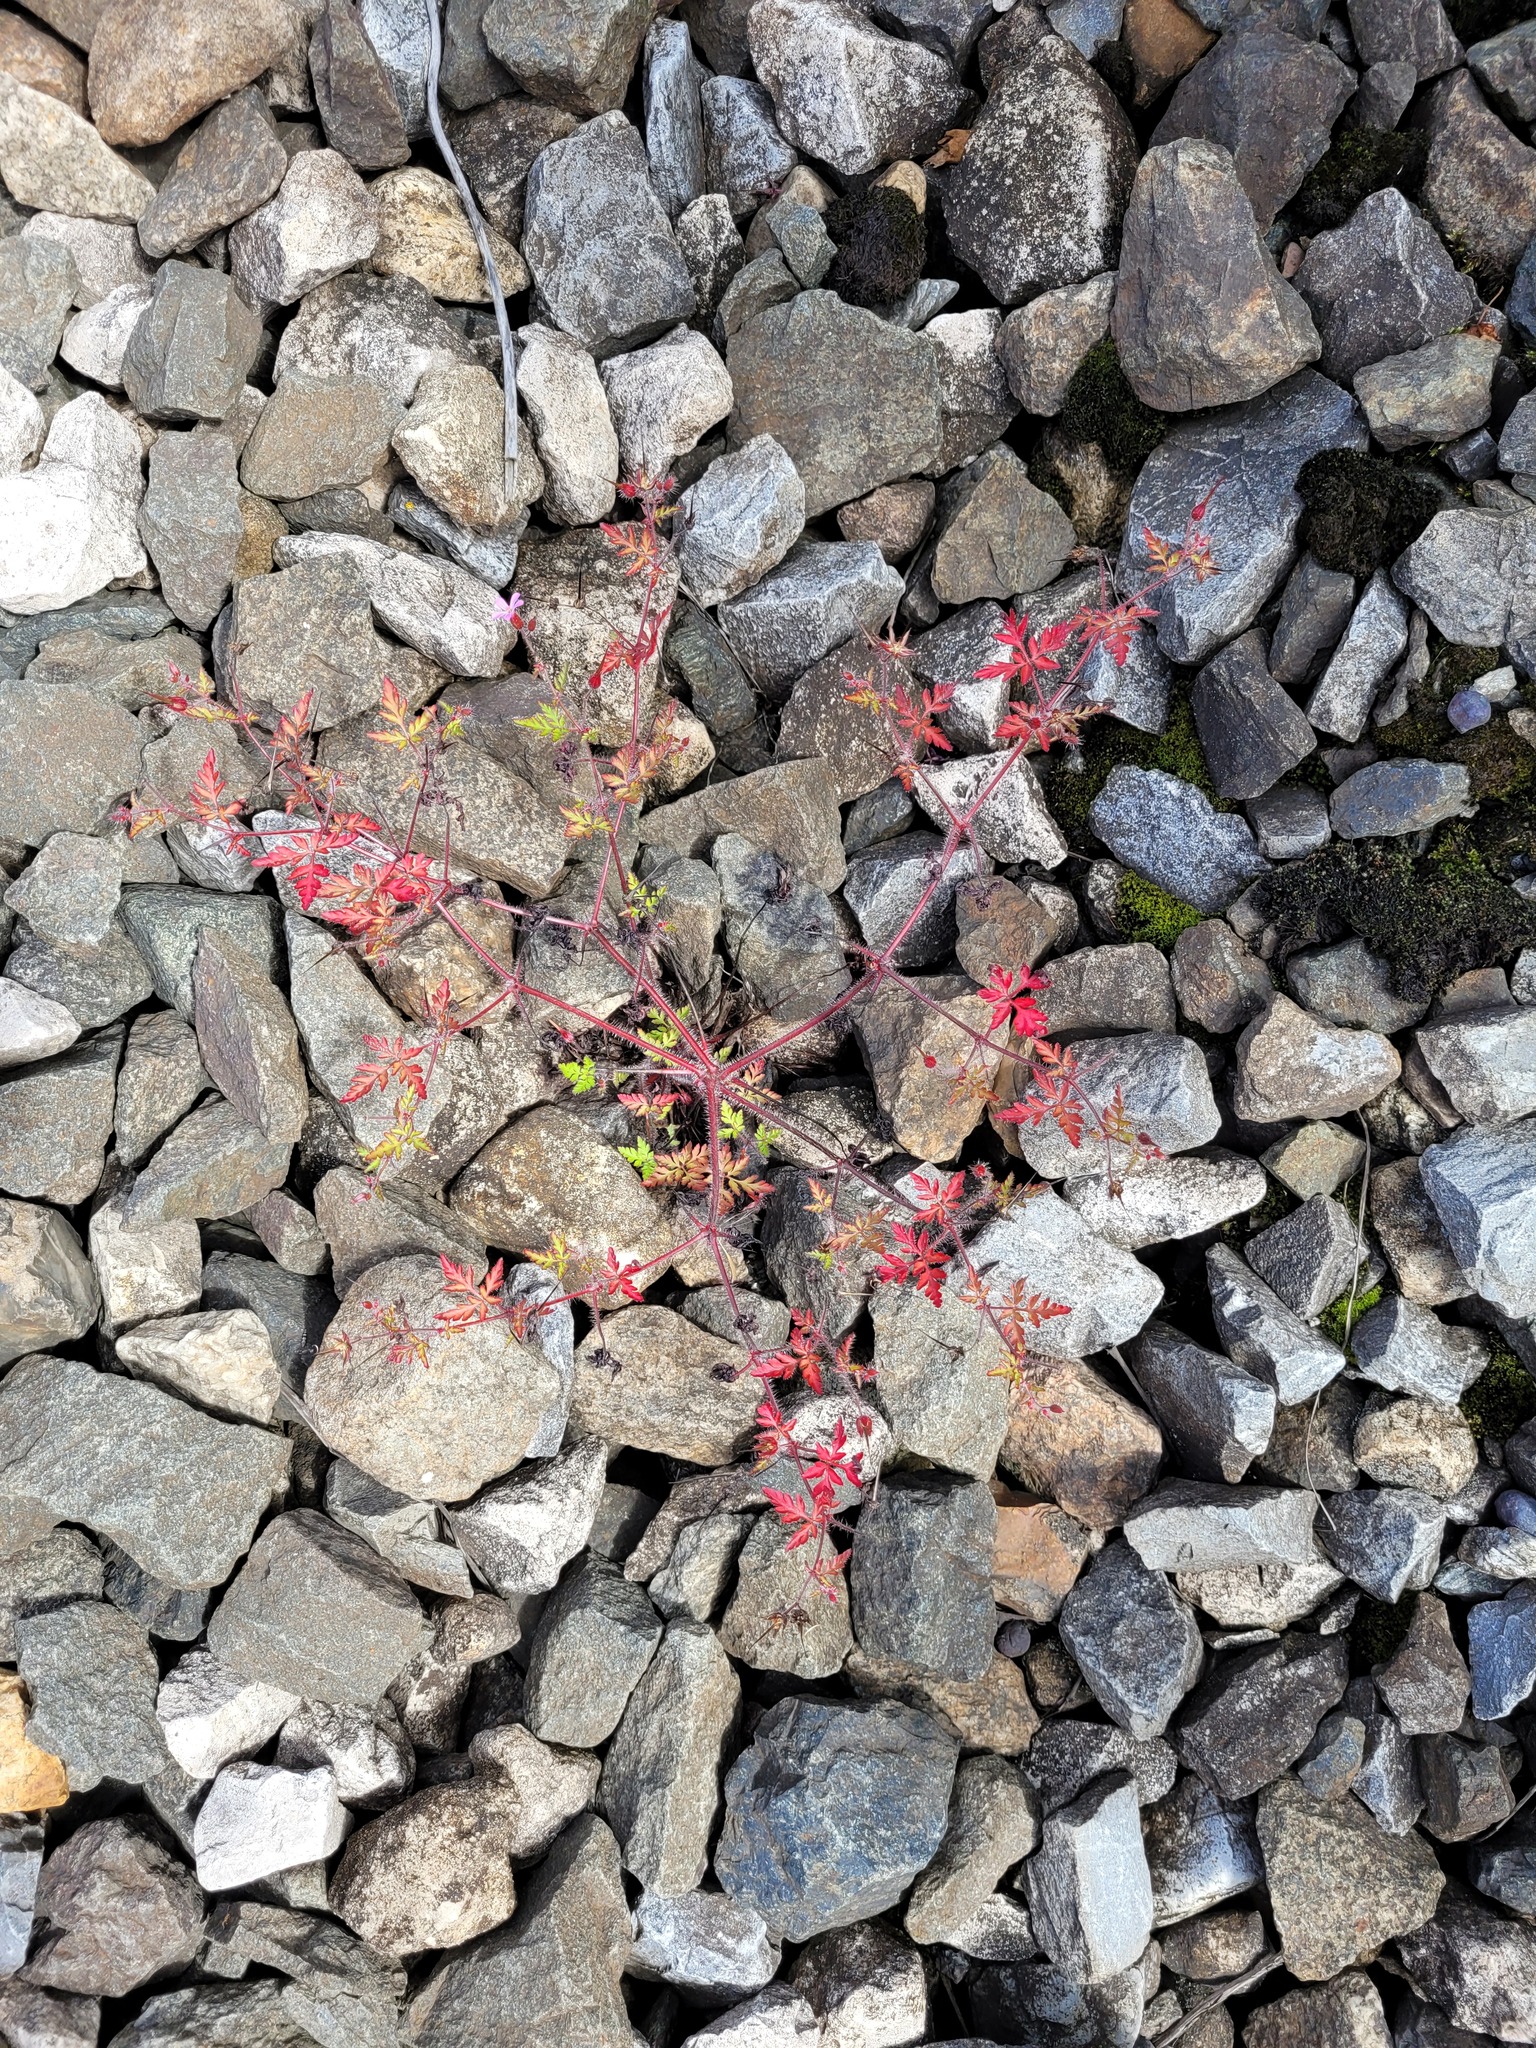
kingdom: Plantae
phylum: Tracheophyta
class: Magnoliopsida
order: Geraniales
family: Geraniaceae
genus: Geranium
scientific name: Geranium robertianum
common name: Herb-robert
